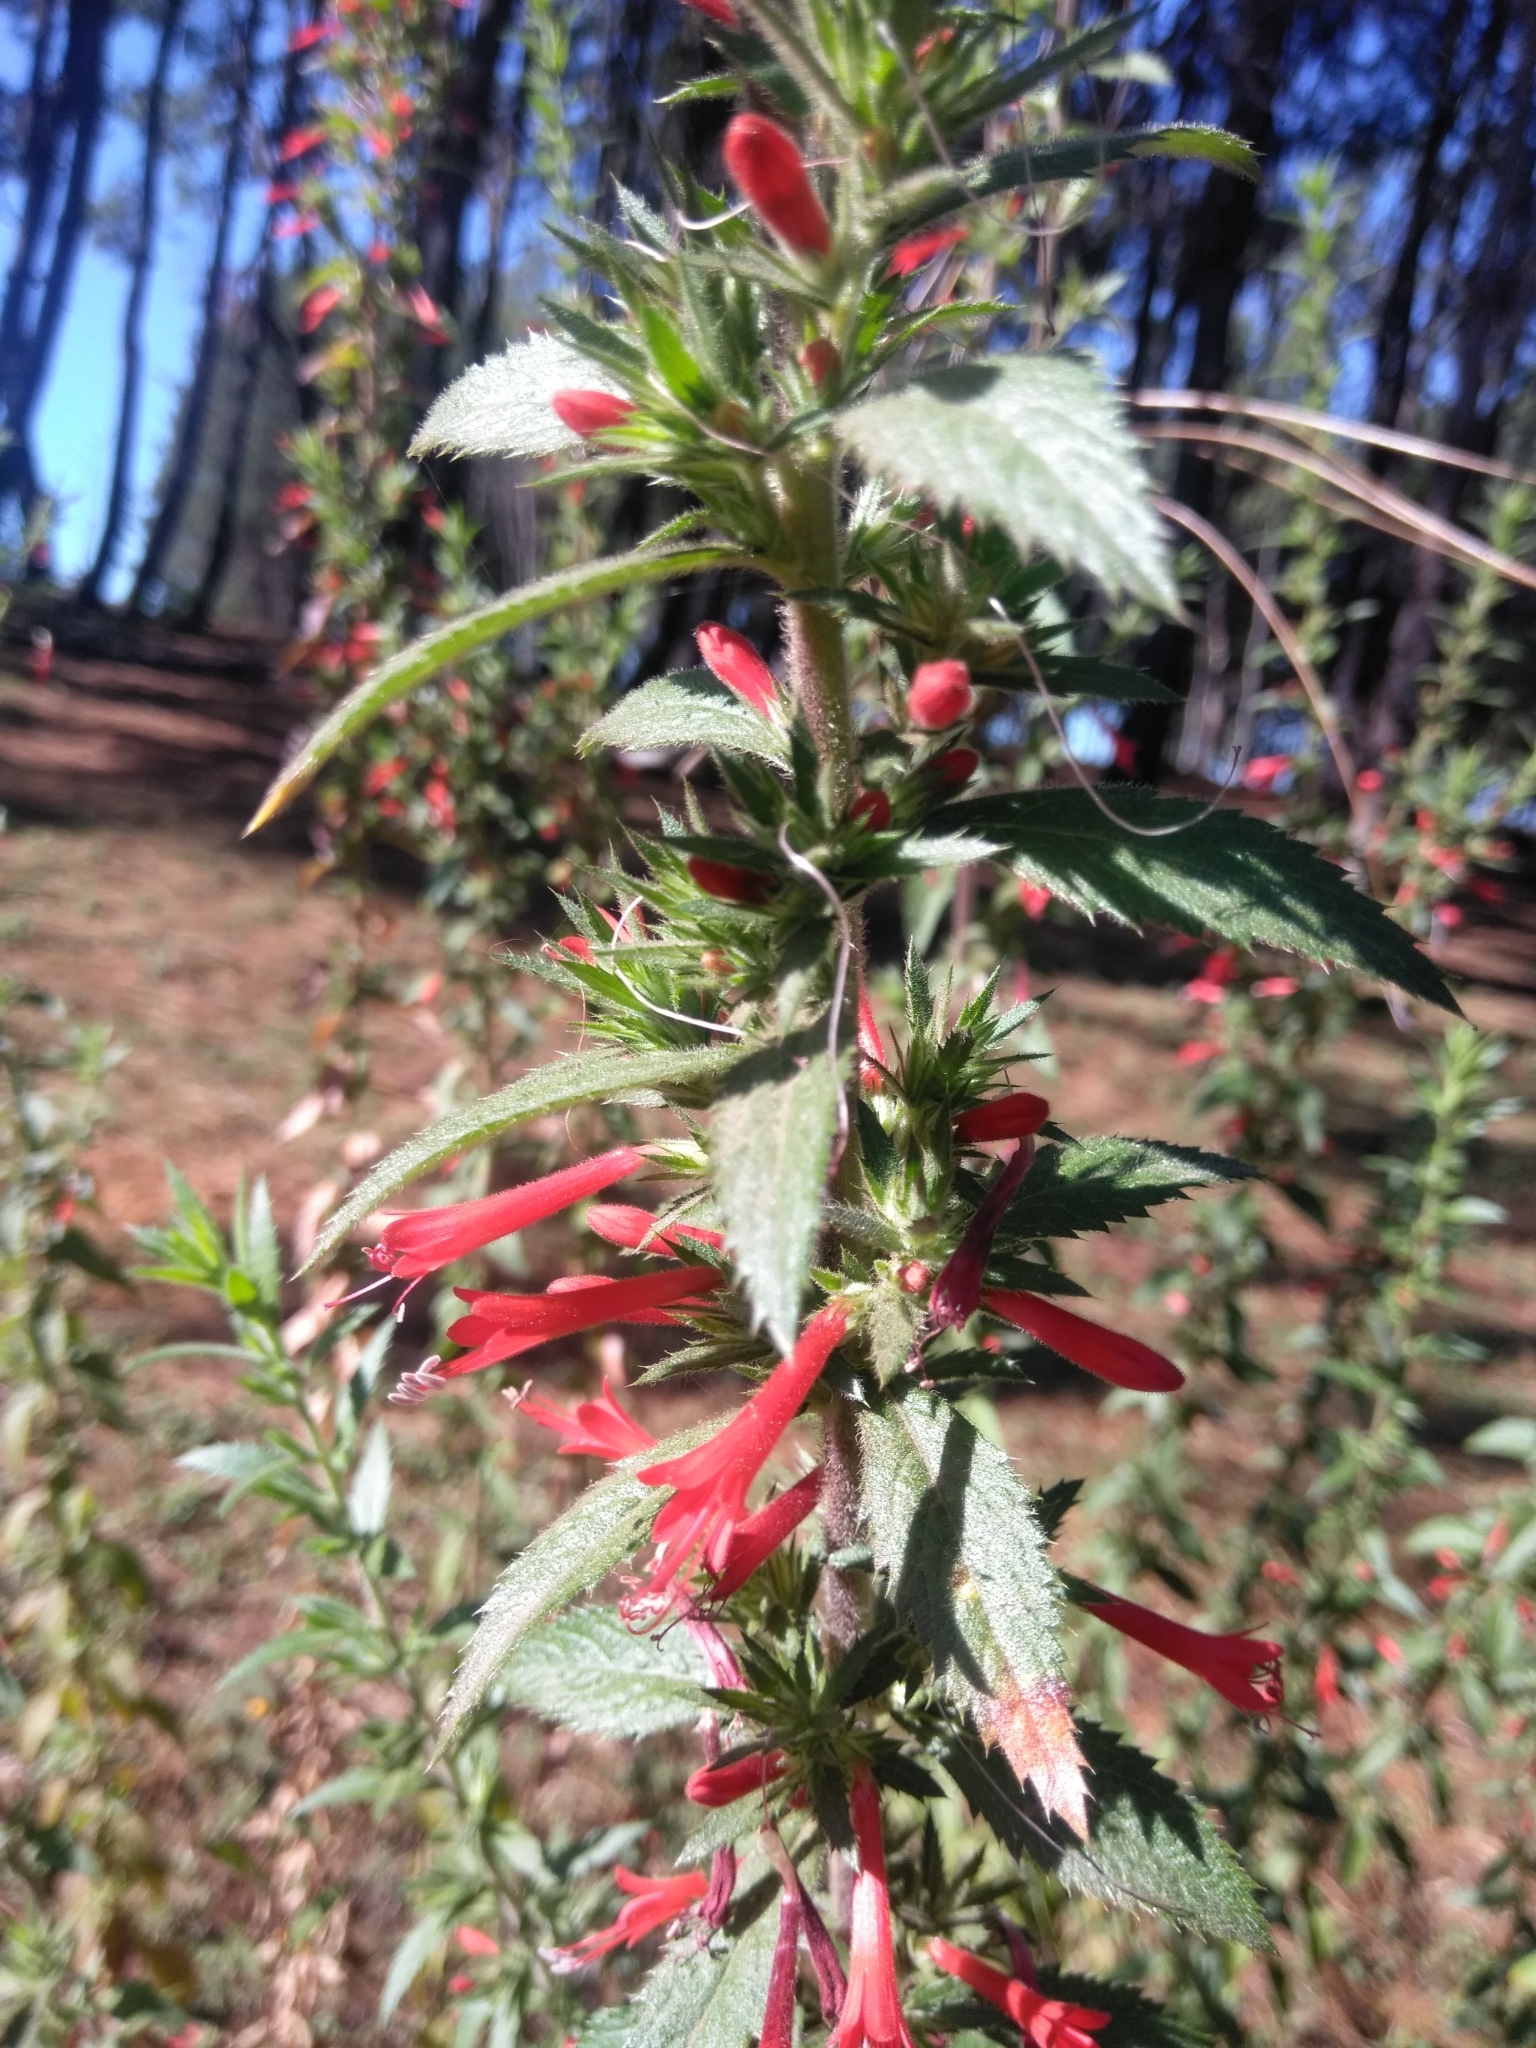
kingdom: Plantae
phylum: Tracheophyta
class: Magnoliopsida
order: Ericales
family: Polemoniaceae
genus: Loeselia
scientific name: Loeselia mexicana
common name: Mexican false calico
